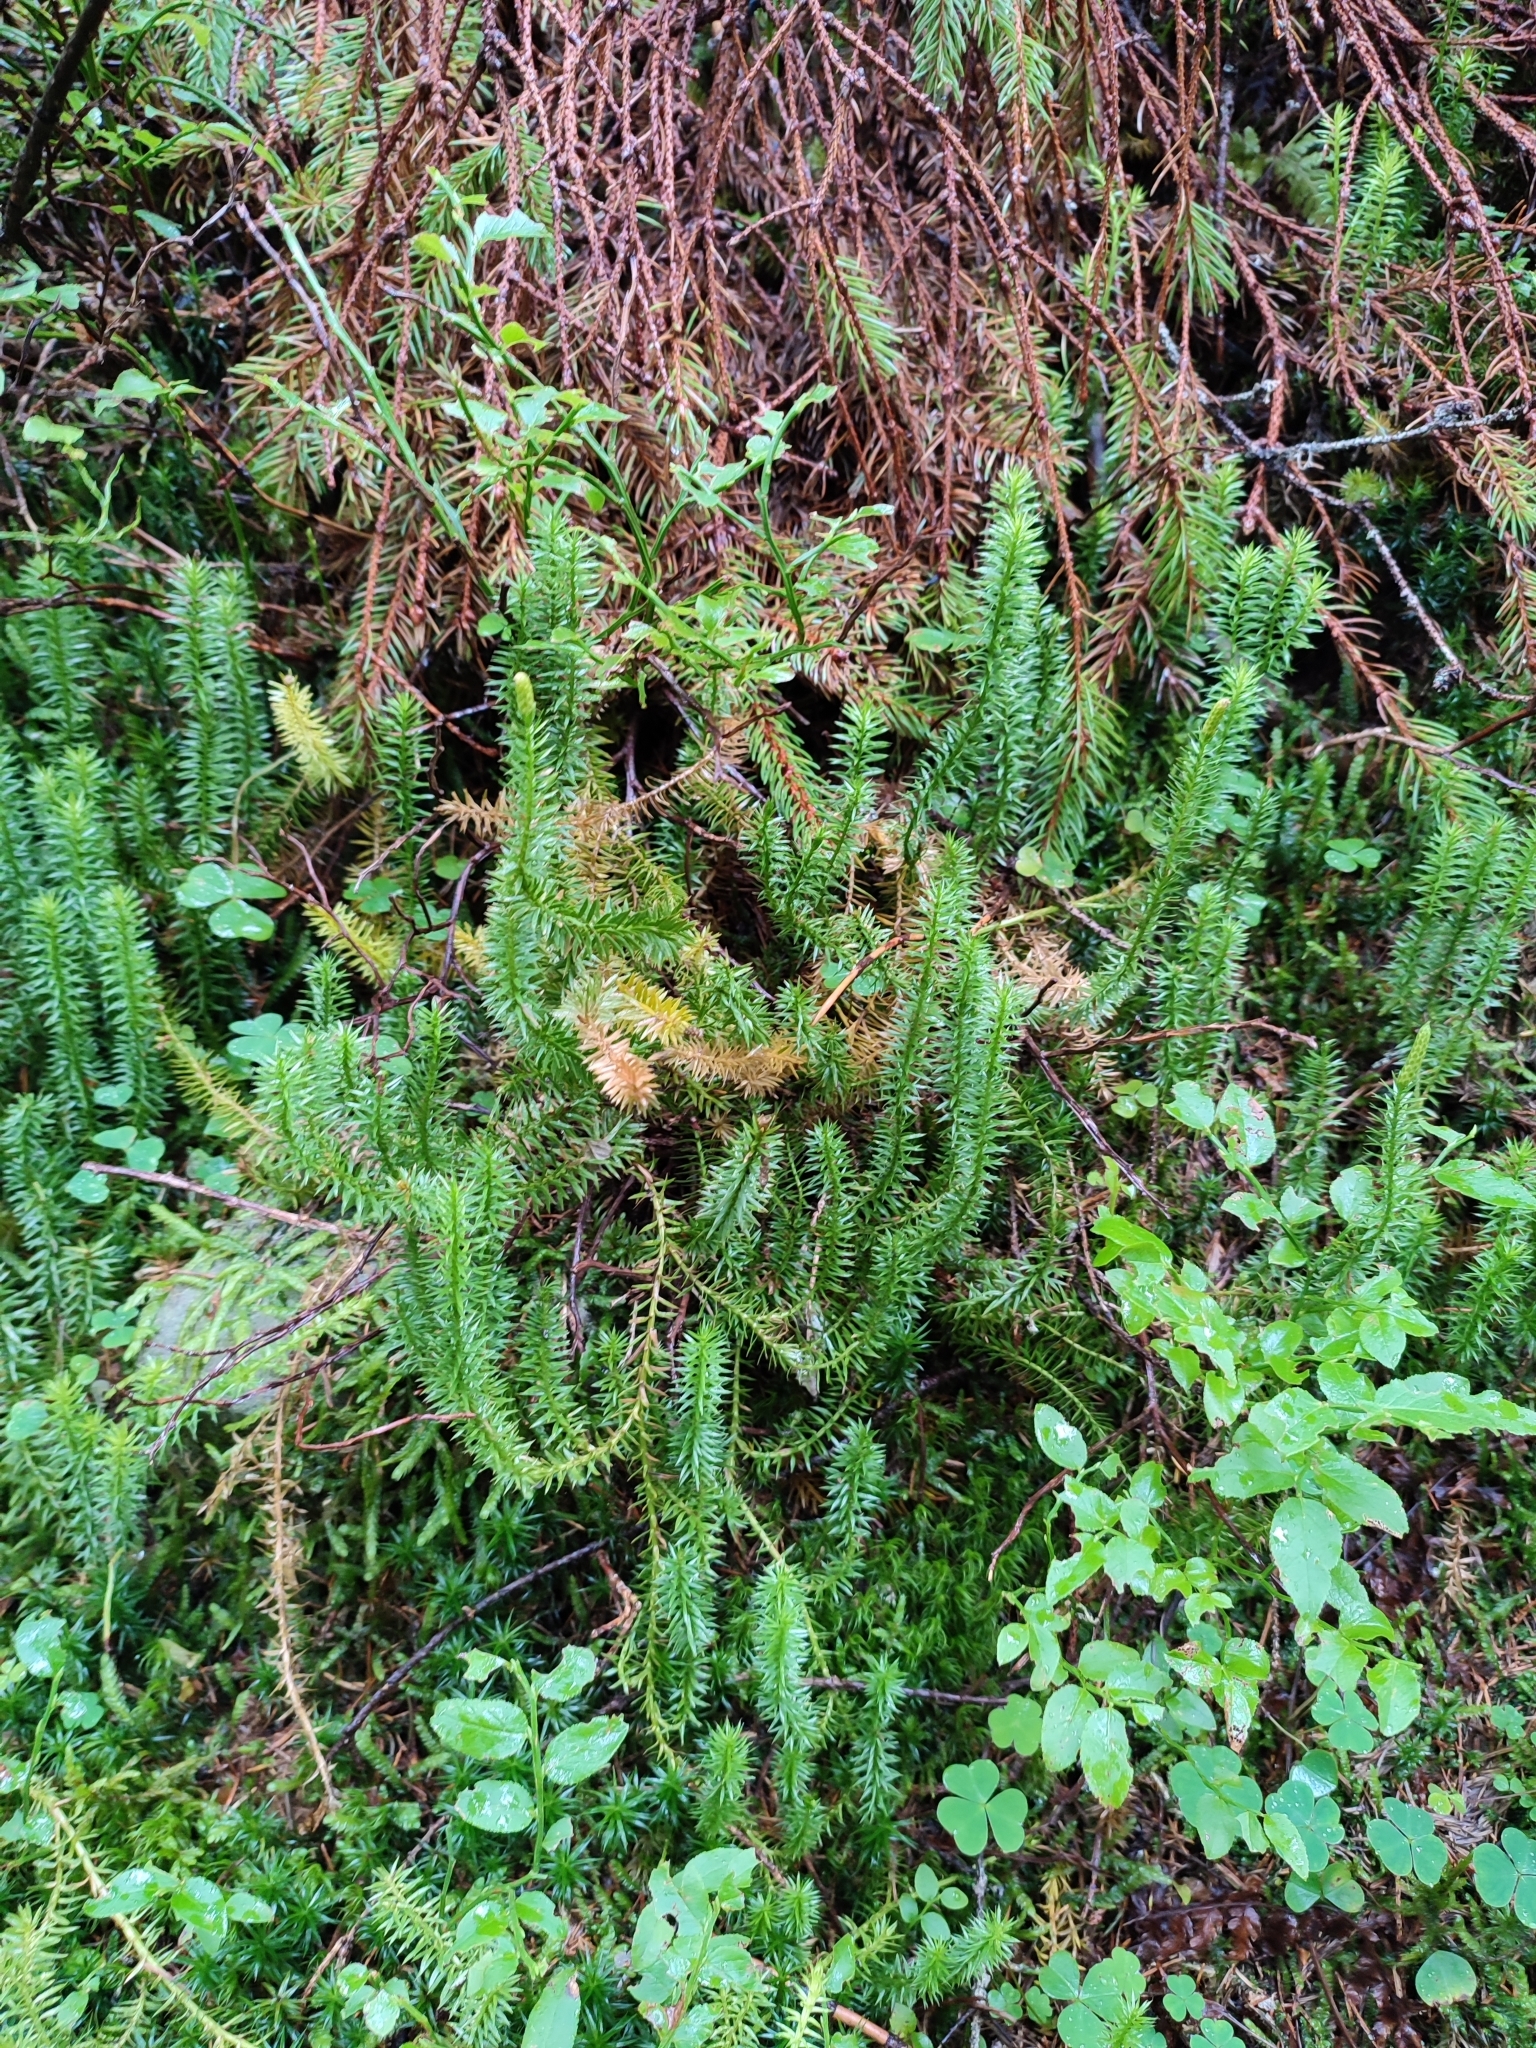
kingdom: Plantae
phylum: Tracheophyta
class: Lycopodiopsida
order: Lycopodiales
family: Lycopodiaceae
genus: Spinulum
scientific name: Spinulum annotinum
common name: Interrupted club-moss
